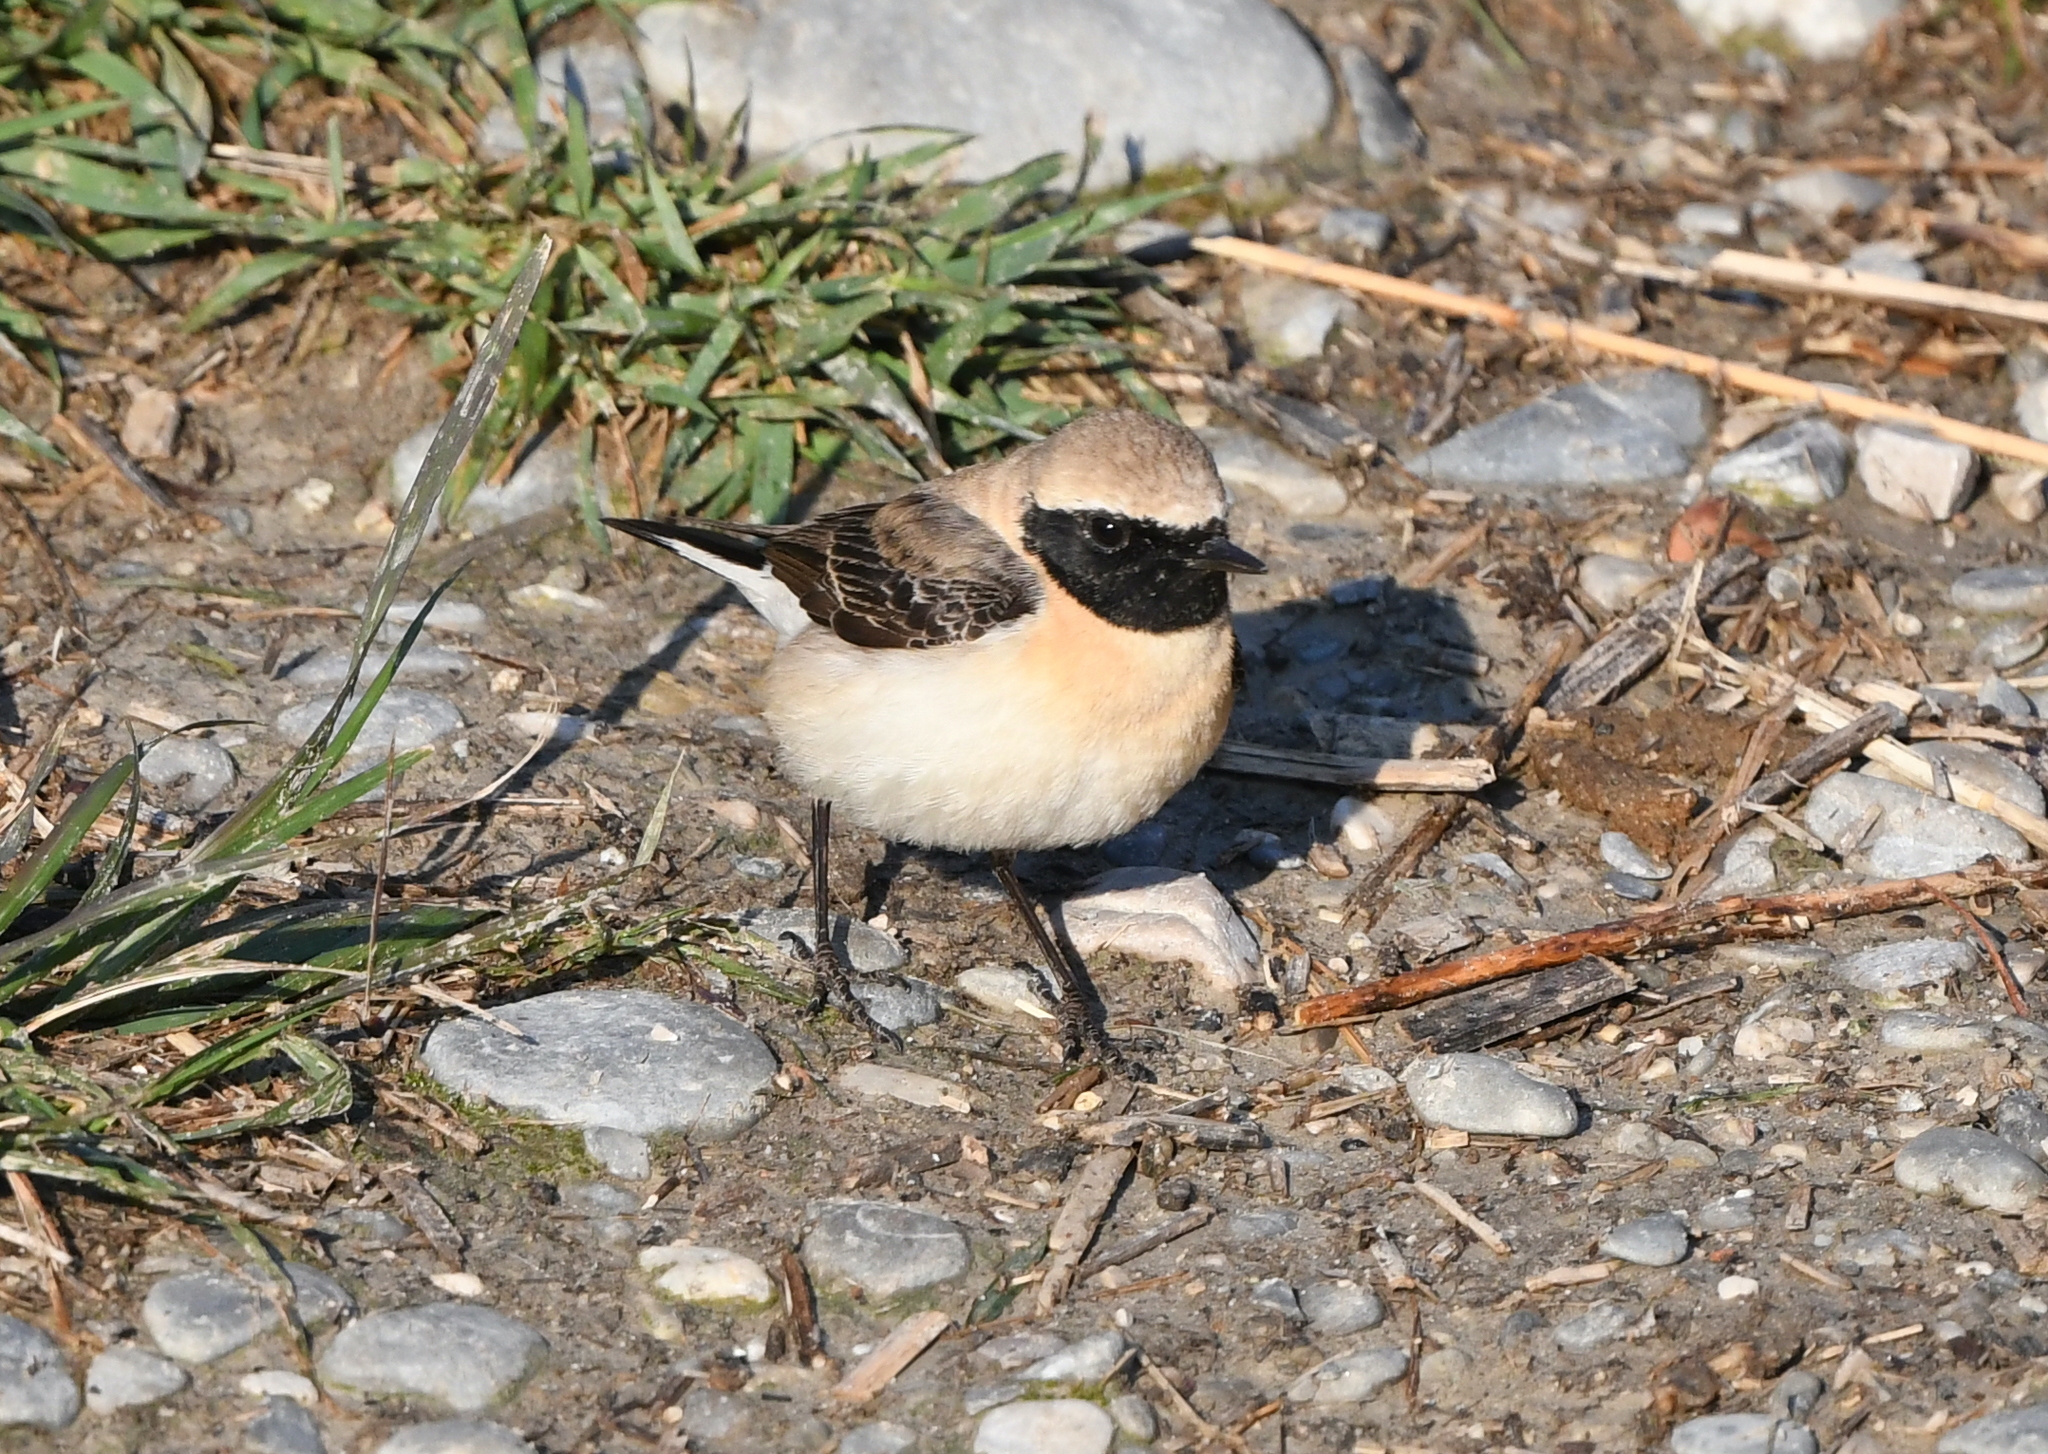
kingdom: Animalia
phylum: Chordata
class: Aves
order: Passeriformes
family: Muscicapidae
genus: Oenanthe
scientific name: Oenanthe hispanica
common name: Black-eared wheatear
